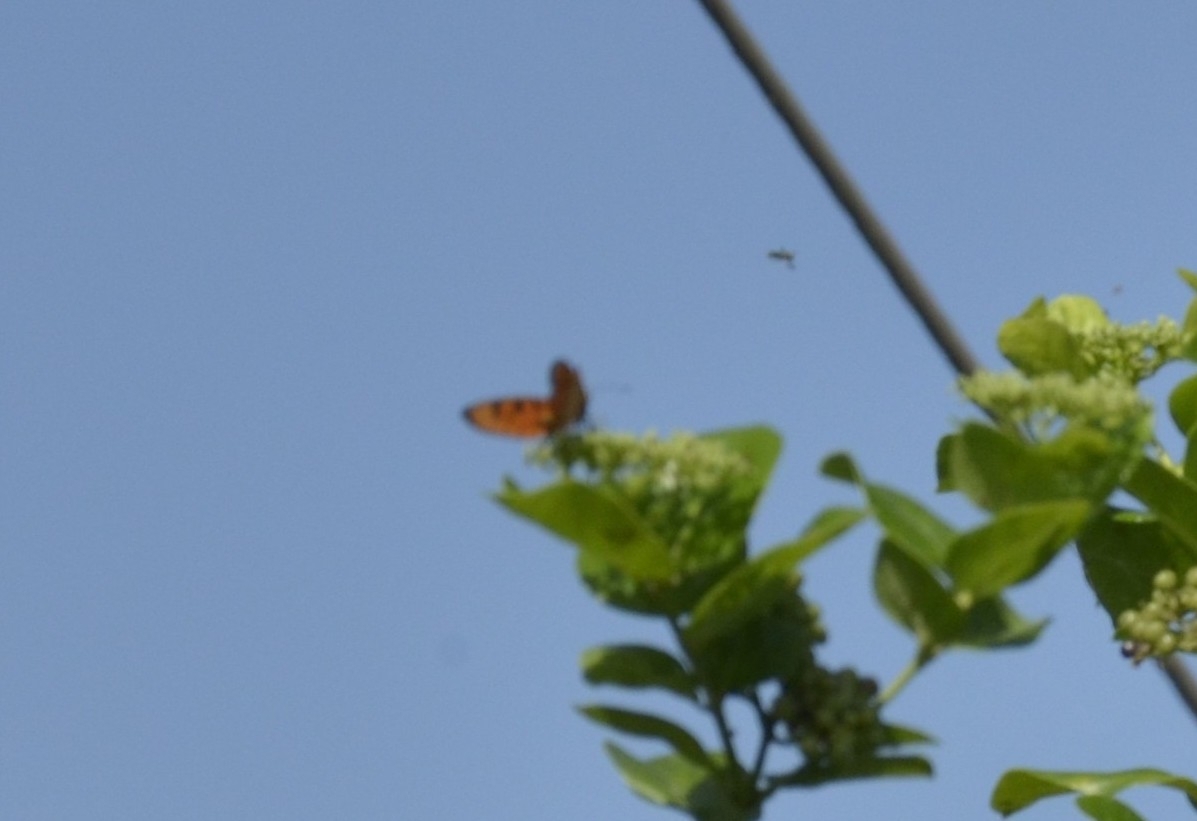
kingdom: Animalia
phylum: Arthropoda
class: Insecta
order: Lepidoptera
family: Nymphalidae
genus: Acraea
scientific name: Acraea terpsicore
